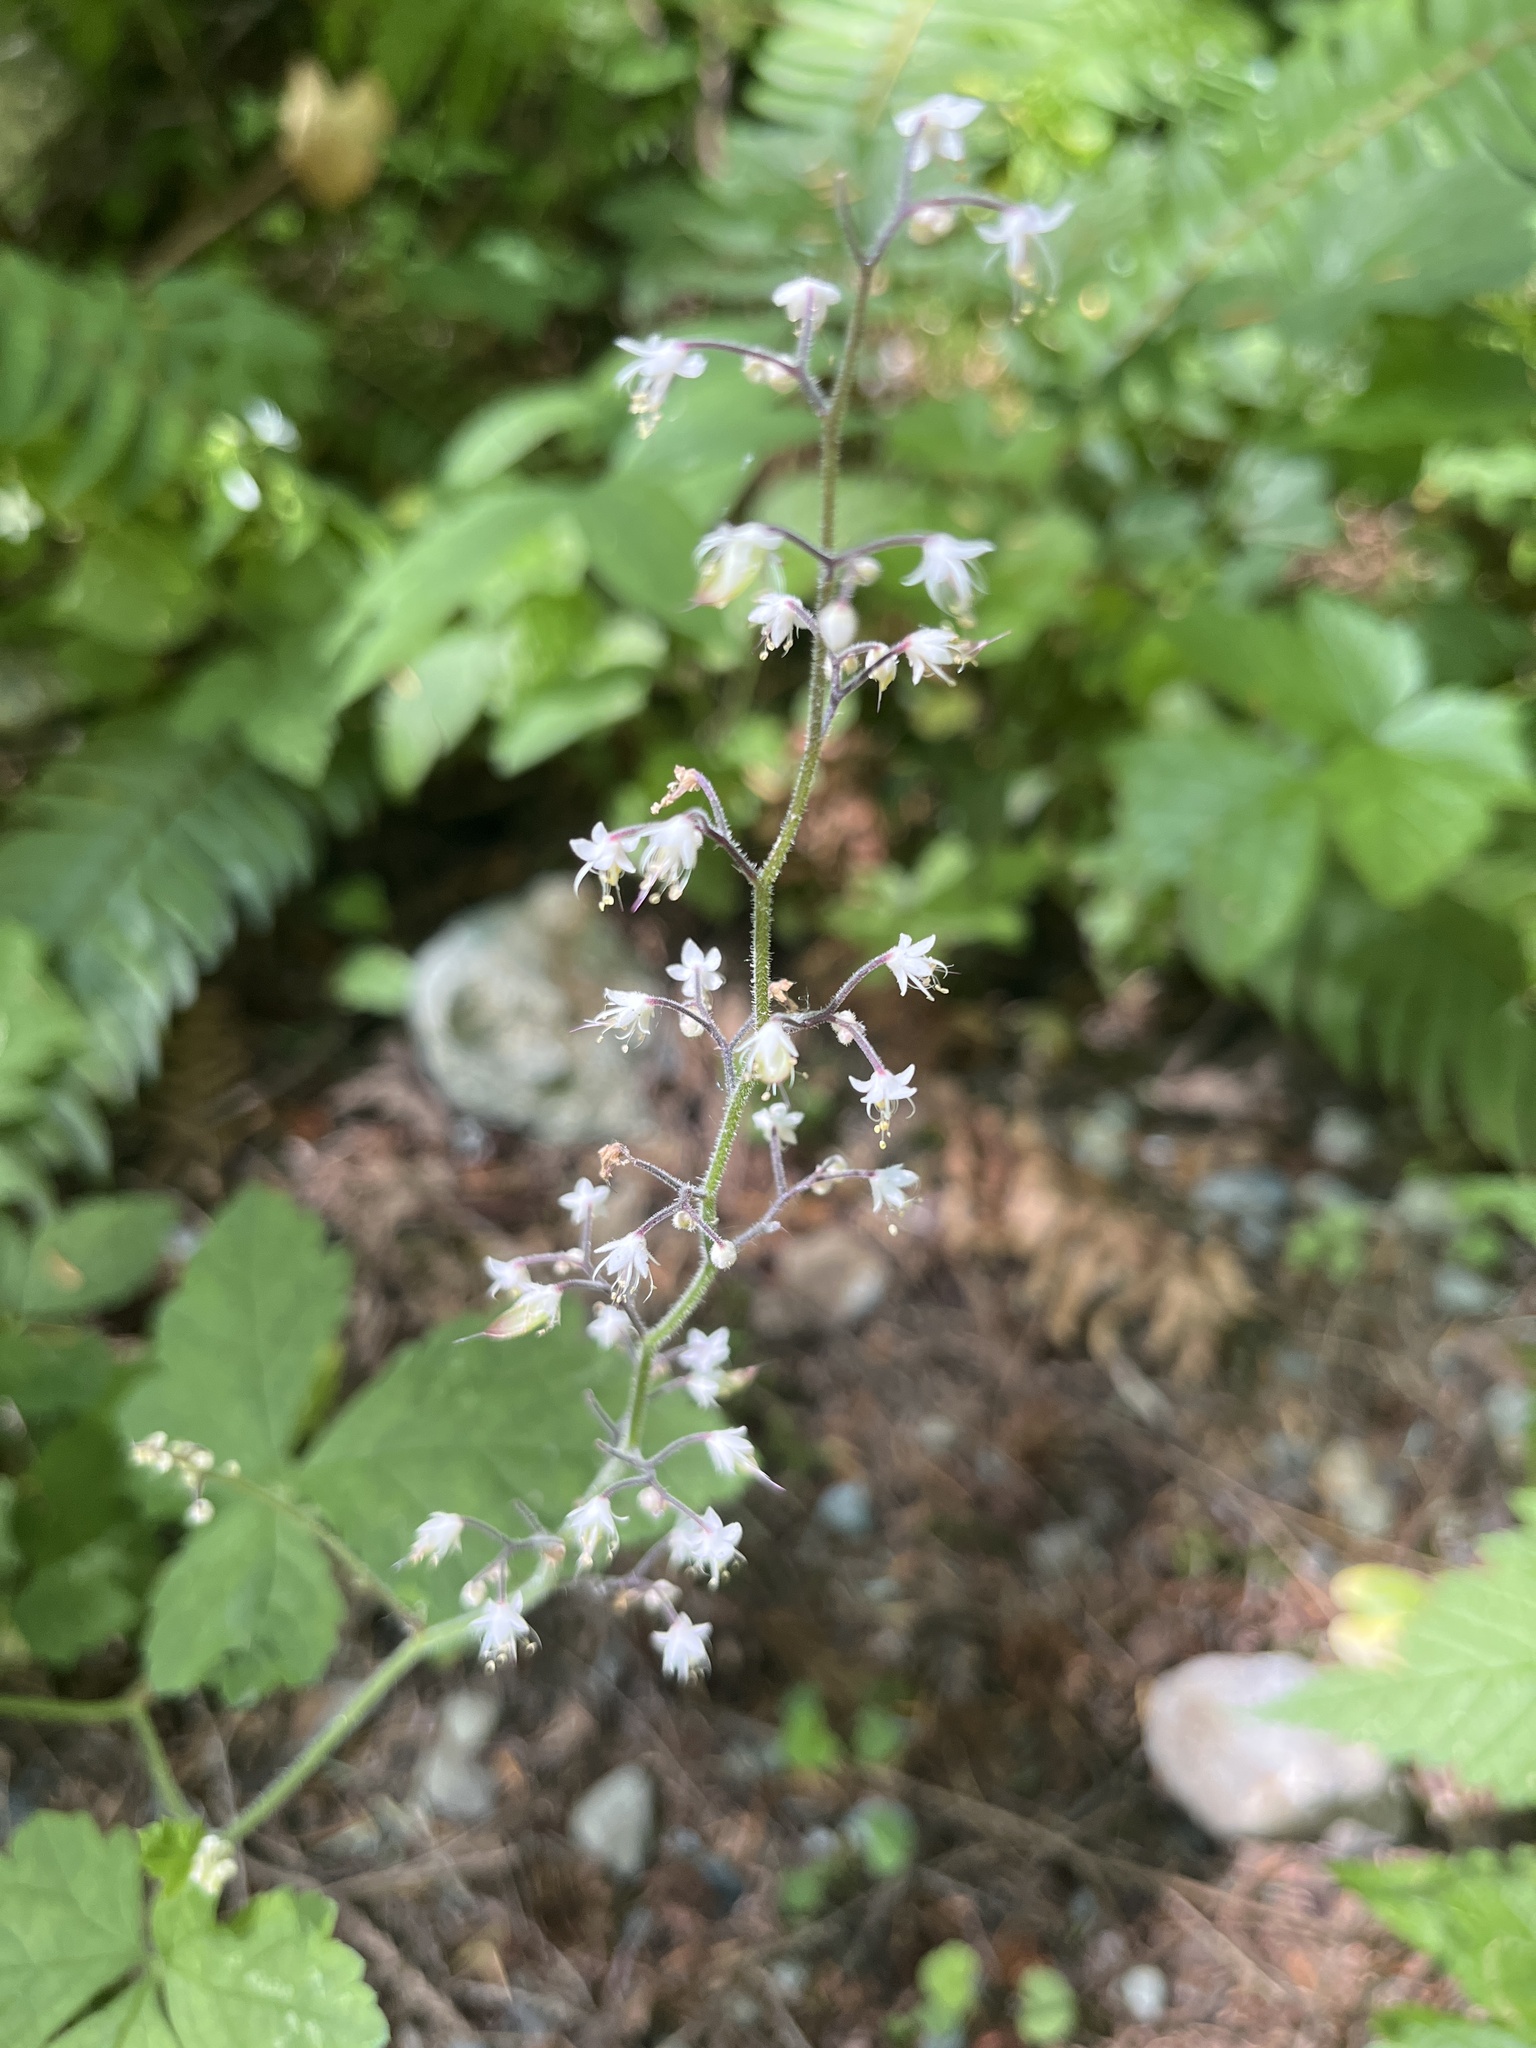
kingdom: Plantae
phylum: Tracheophyta
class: Magnoliopsida
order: Saxifragales
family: Saxifragaceae
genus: Tiarella
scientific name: Tiarella trifoliata
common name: Sugar-scoop
